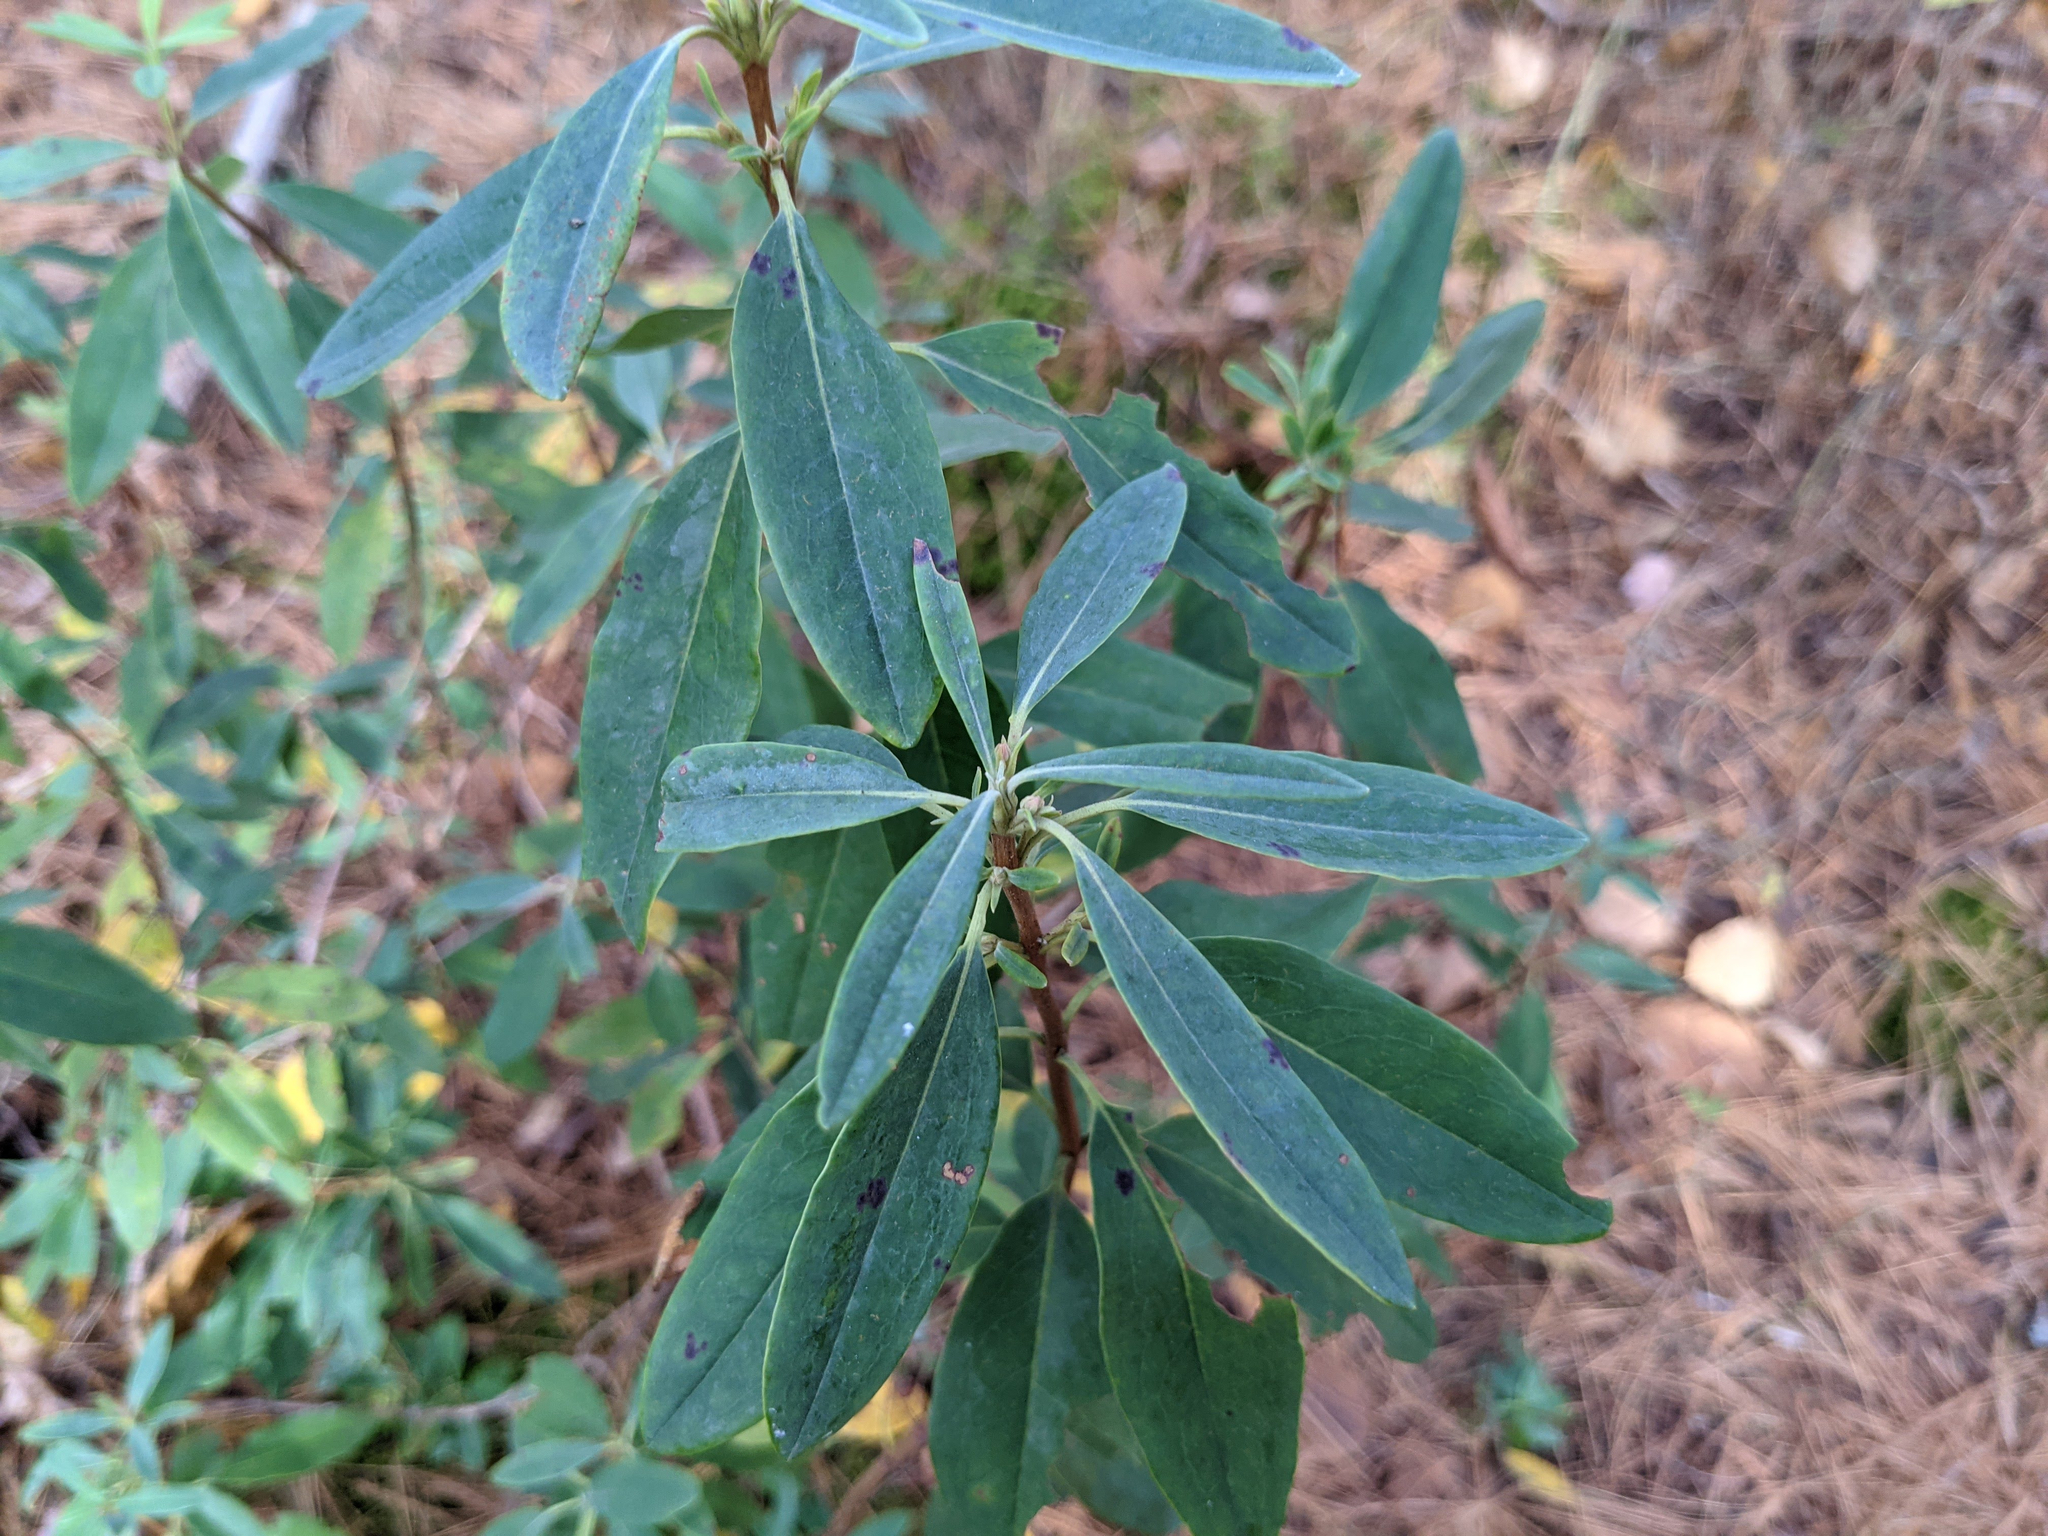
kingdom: Plantae
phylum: Tracheophyta
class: Magnoliopsida
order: Ericales
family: Ericaceae
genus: Kalmia
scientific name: Kalmia angustifolia
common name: Sheep-laurel
